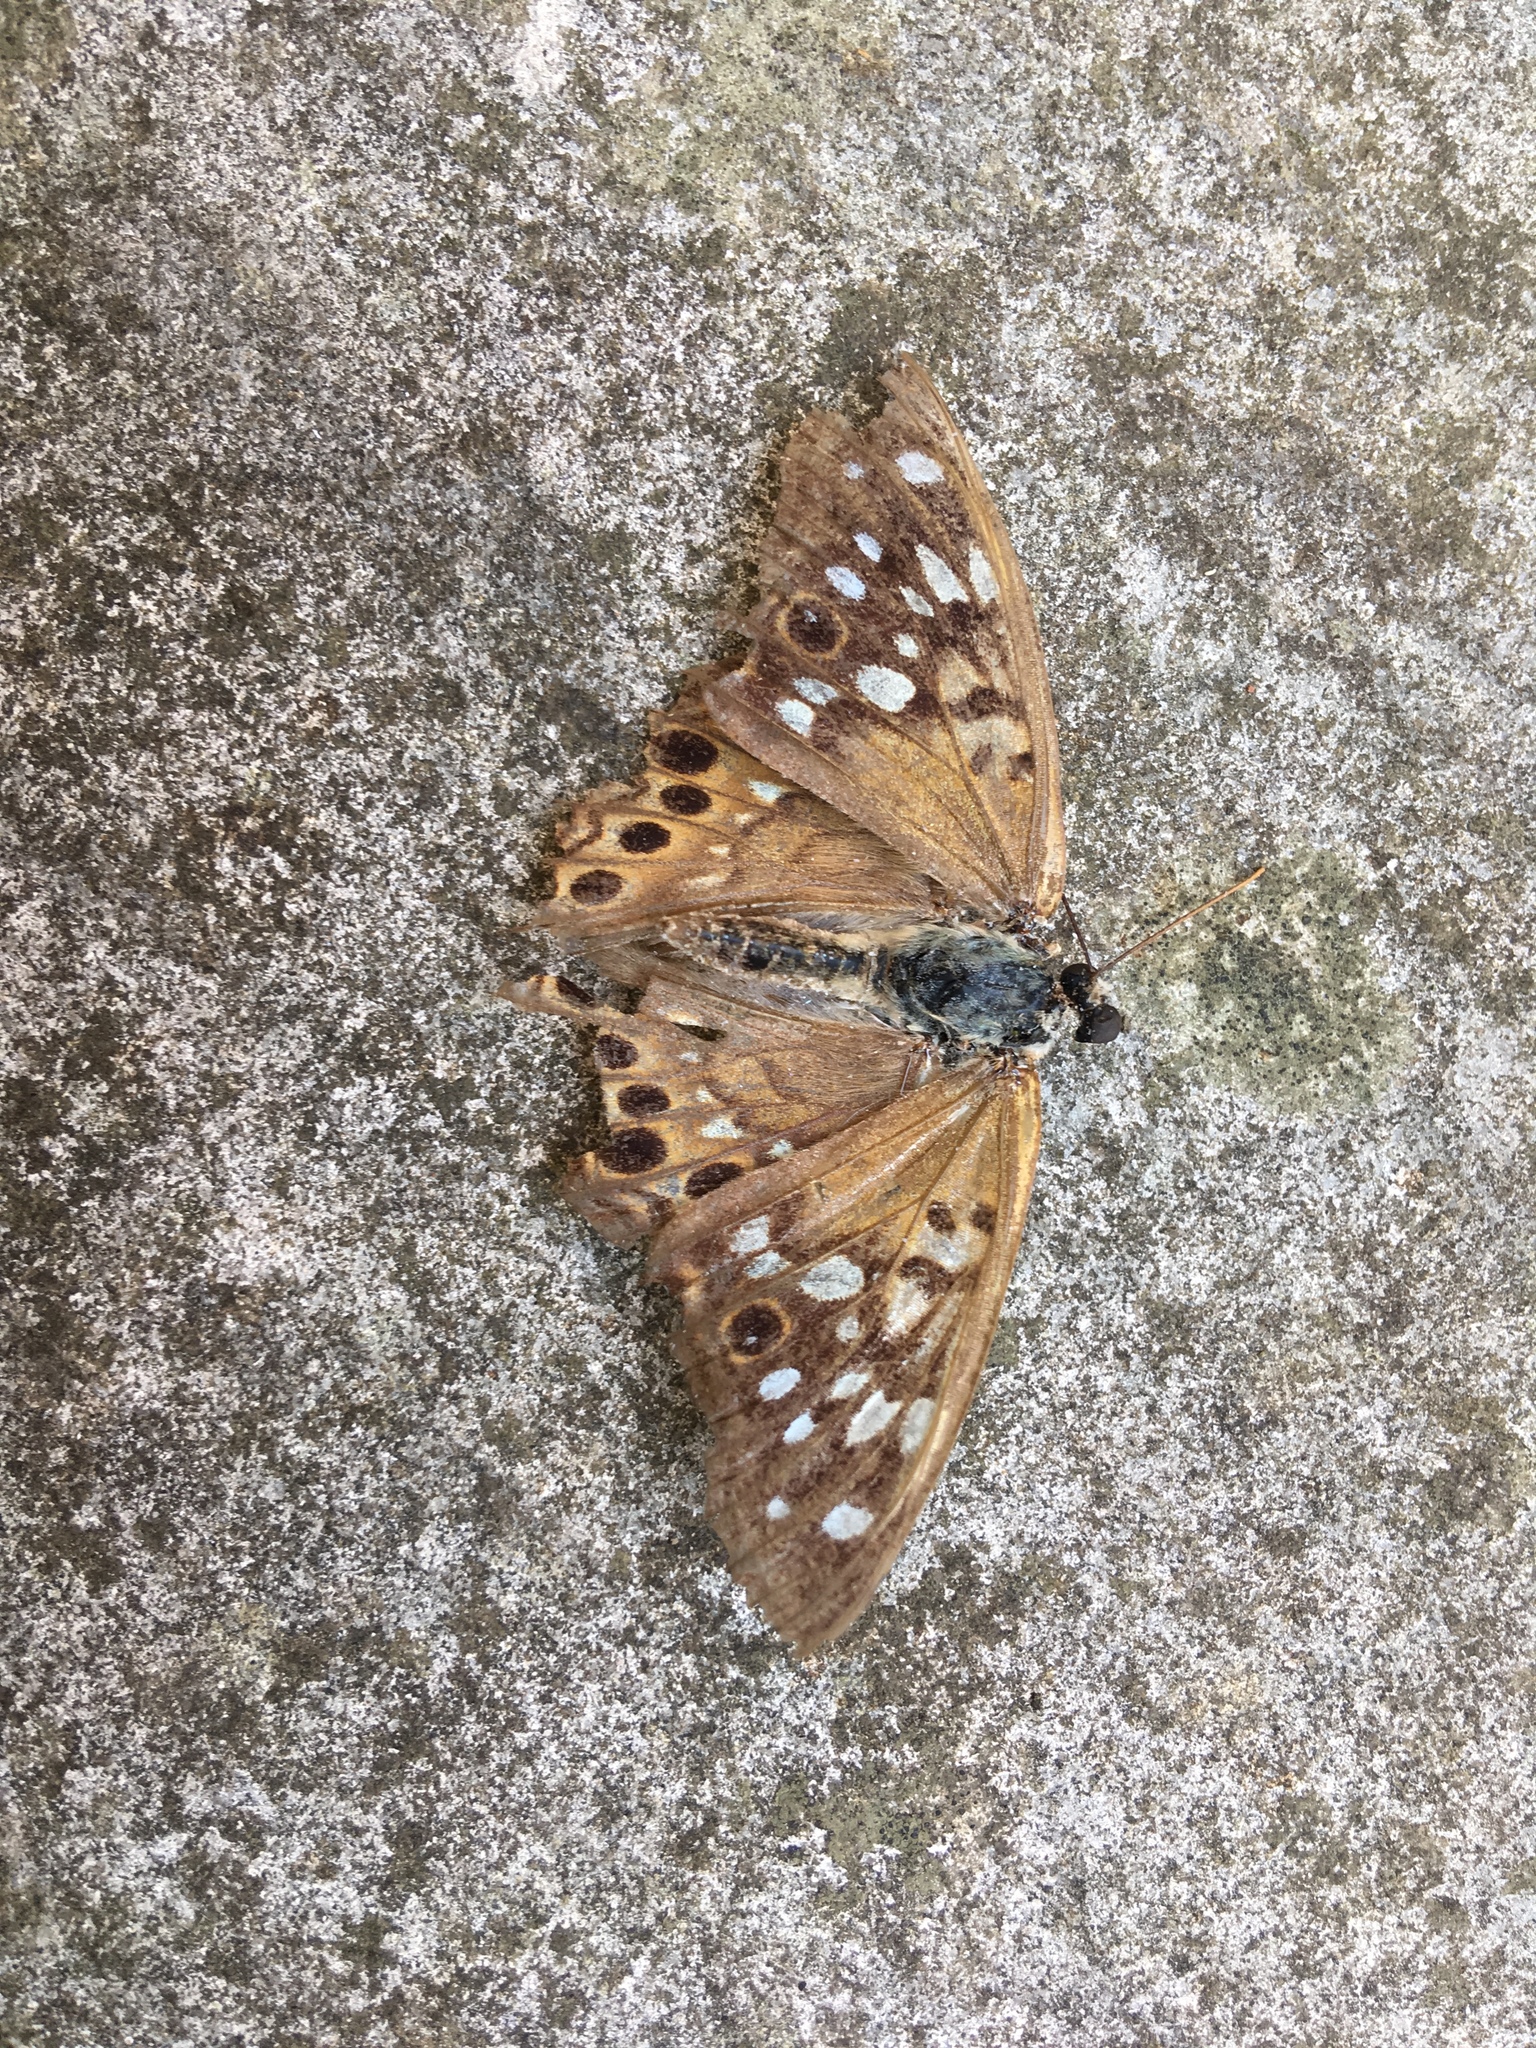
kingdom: Animalia
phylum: Arthropoda
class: Insecta
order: Lepidoptera
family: Nymphalidae
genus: Asterocampa
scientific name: Asterocampa celtis
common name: Hackberry emperor
